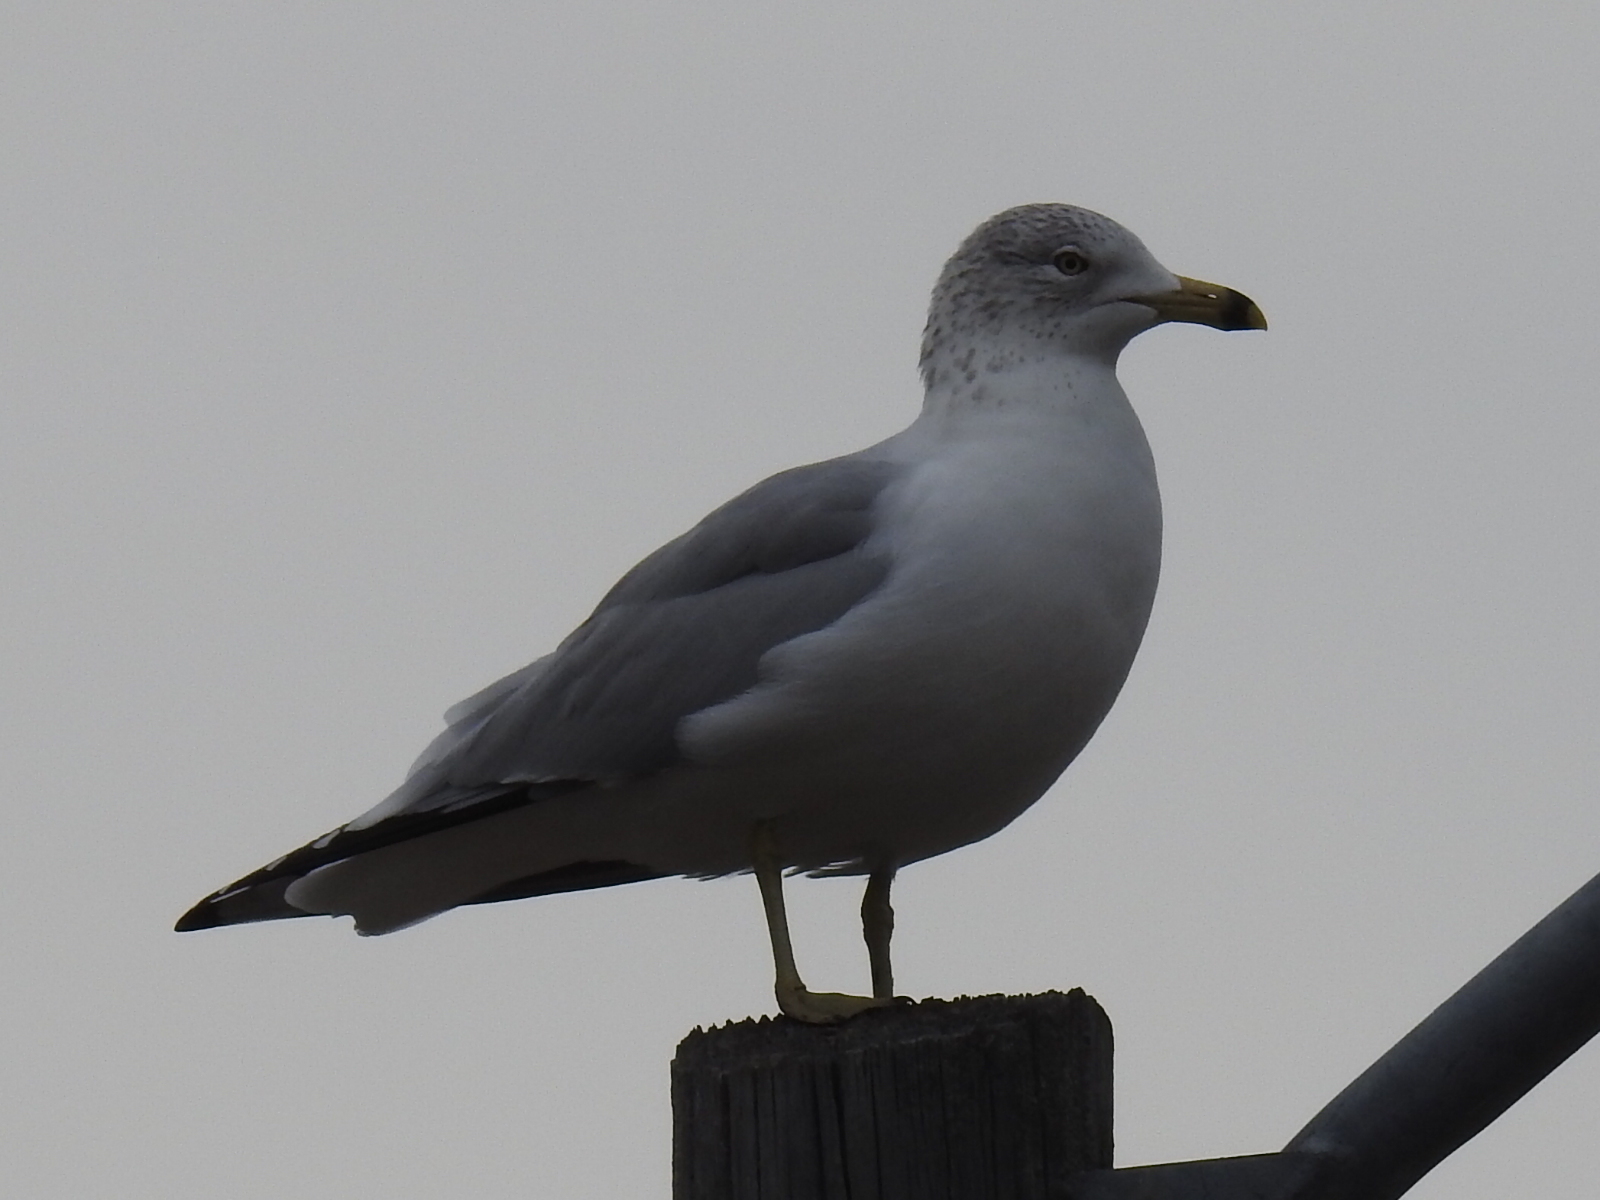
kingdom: Animalia
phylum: Chordata
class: Aves
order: Charadriiformes
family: Laridae
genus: Larus
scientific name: Larus delawarensis
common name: Ring-billed gull
